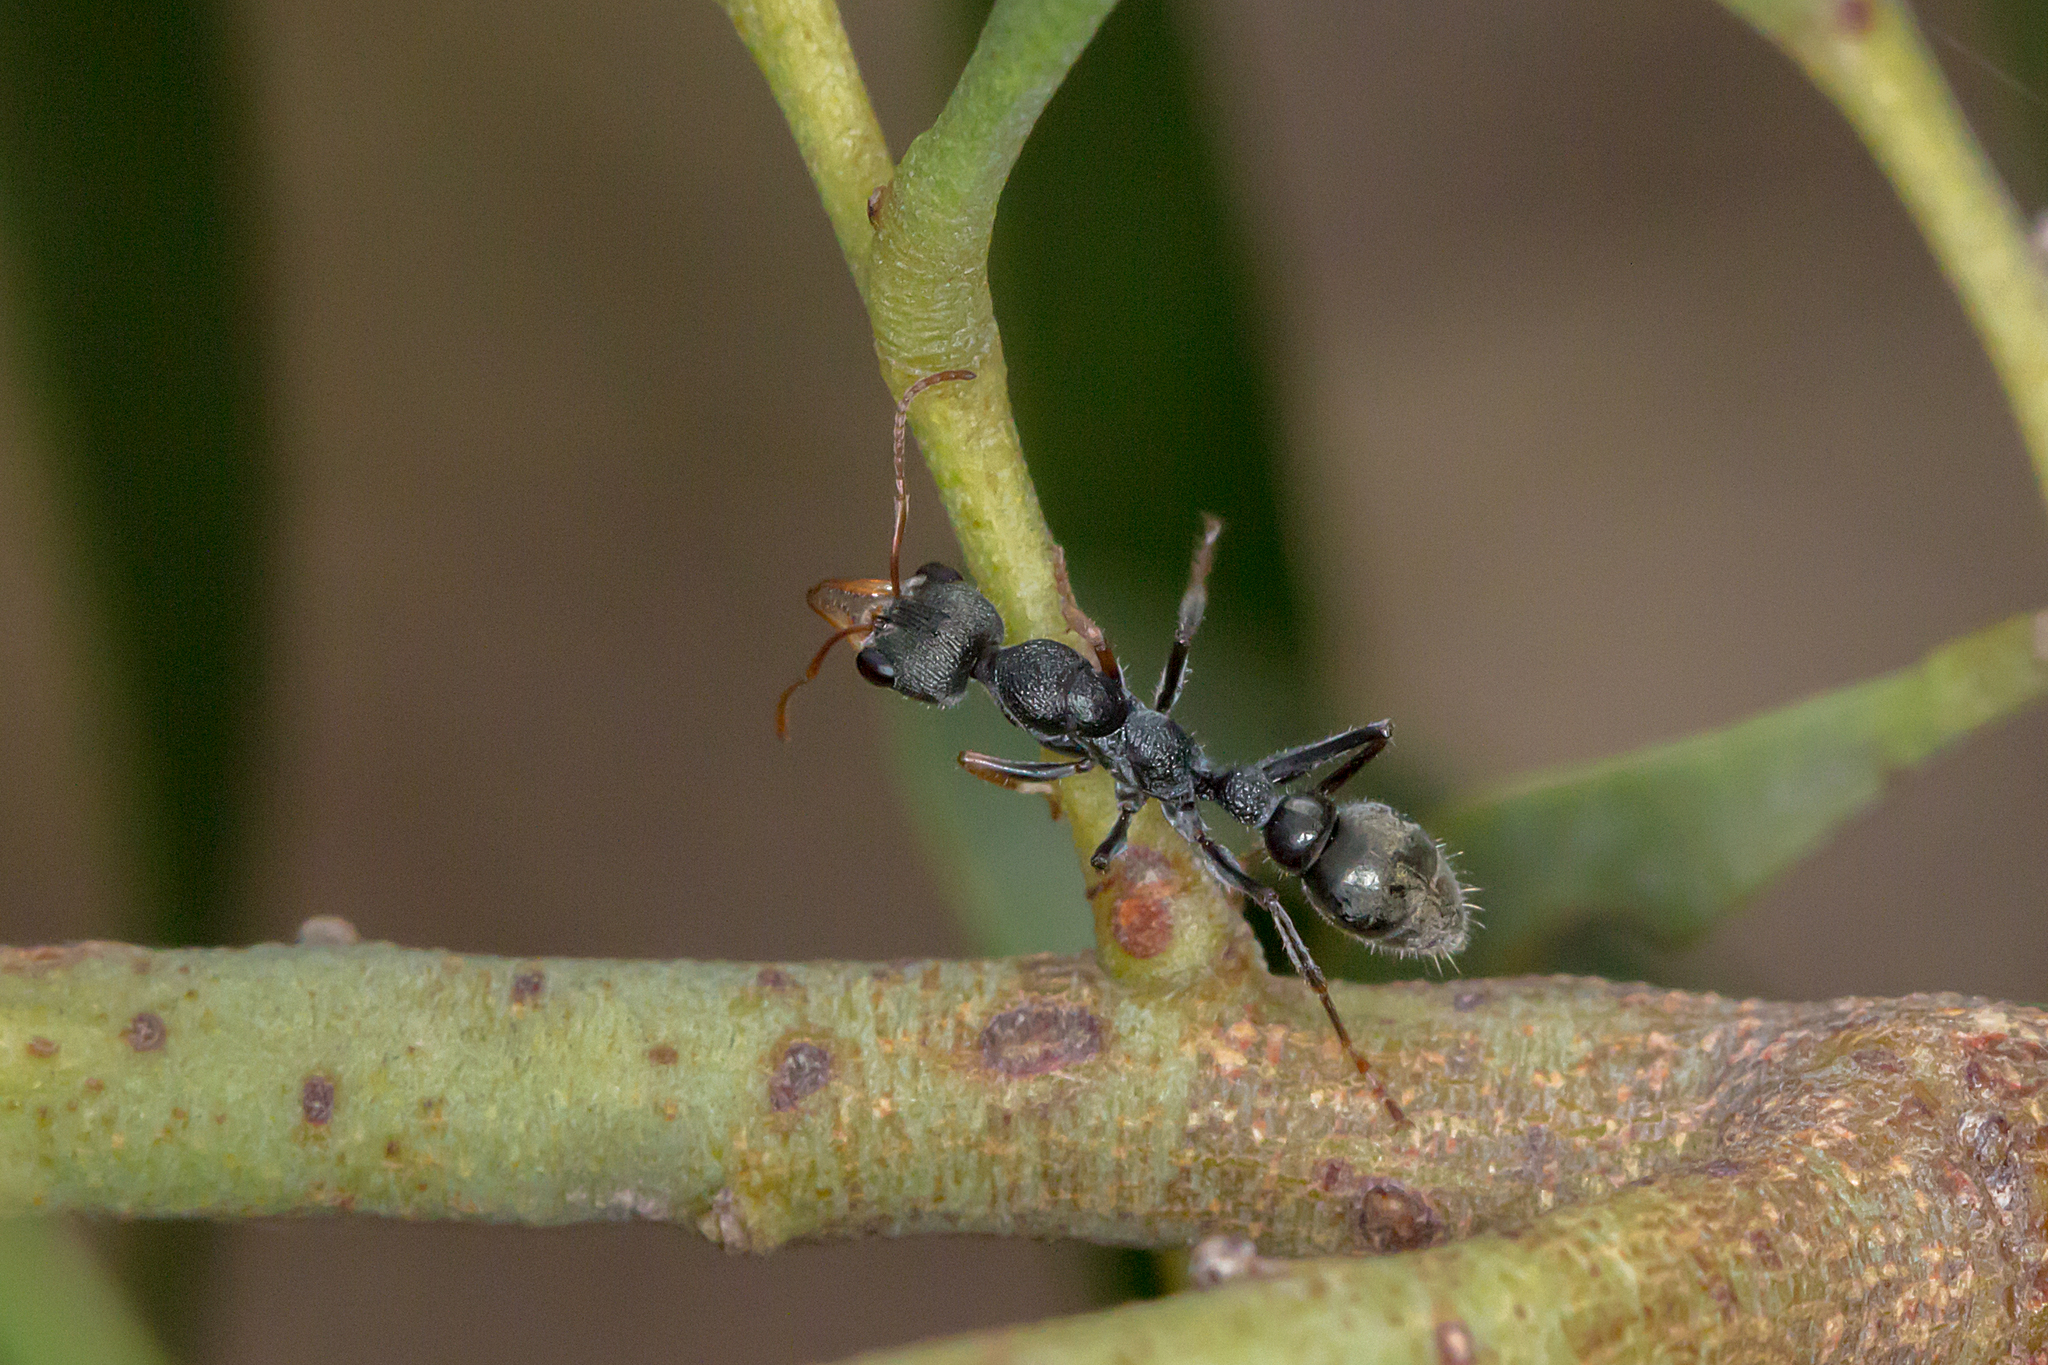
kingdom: Animalia
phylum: Arthropoda
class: Insecta
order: Hymenoptera
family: Formicidae
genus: Myrmecia
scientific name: Myrmecia urens
